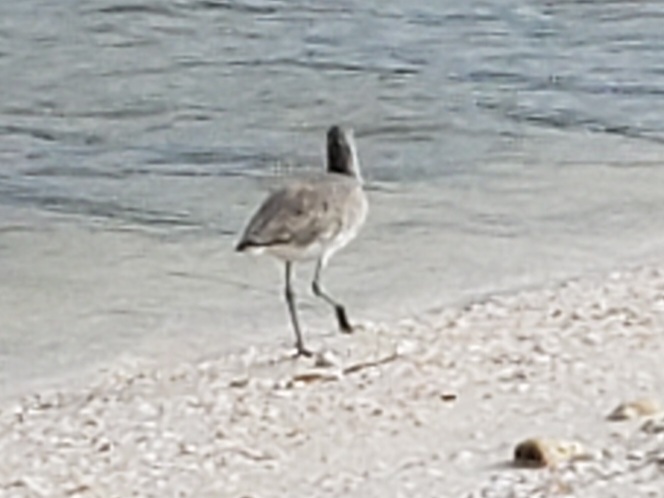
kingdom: Animalia
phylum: Chordata
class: Aves
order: Charadriiformes
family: Scolopacidae
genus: Tringa
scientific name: Tringa semipalmata
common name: Willet
